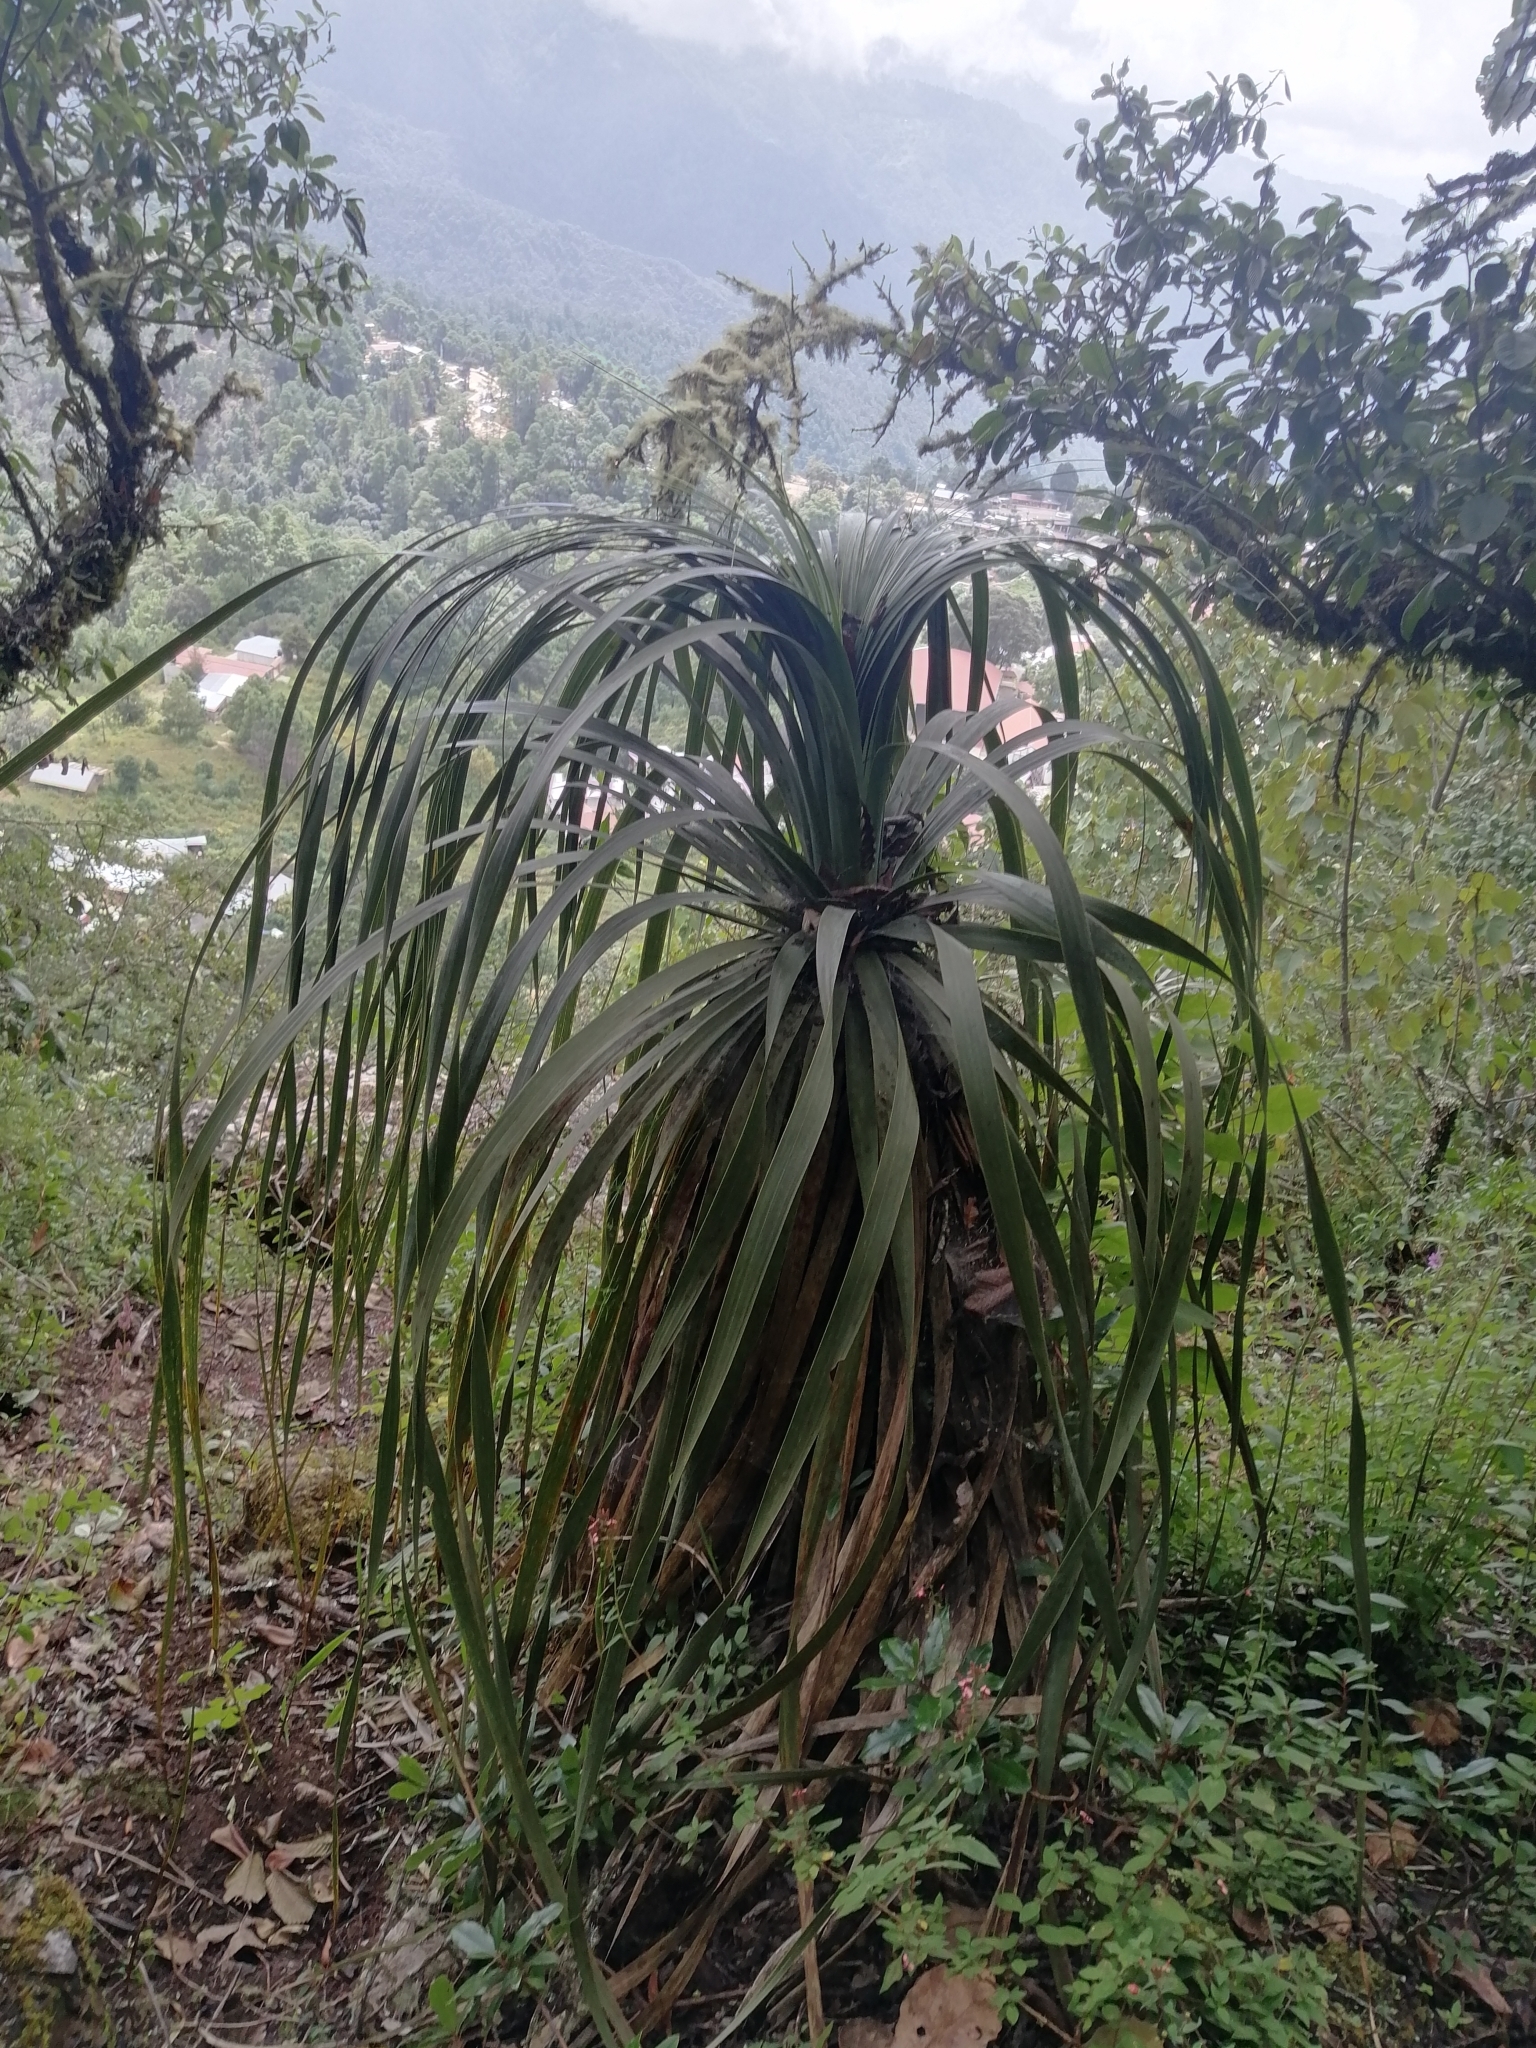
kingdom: Plantae
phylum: Tracheophyta
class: Liliopsida
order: Asparagales
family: Asparagaceae
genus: Nolina
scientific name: Nolina parviflora
